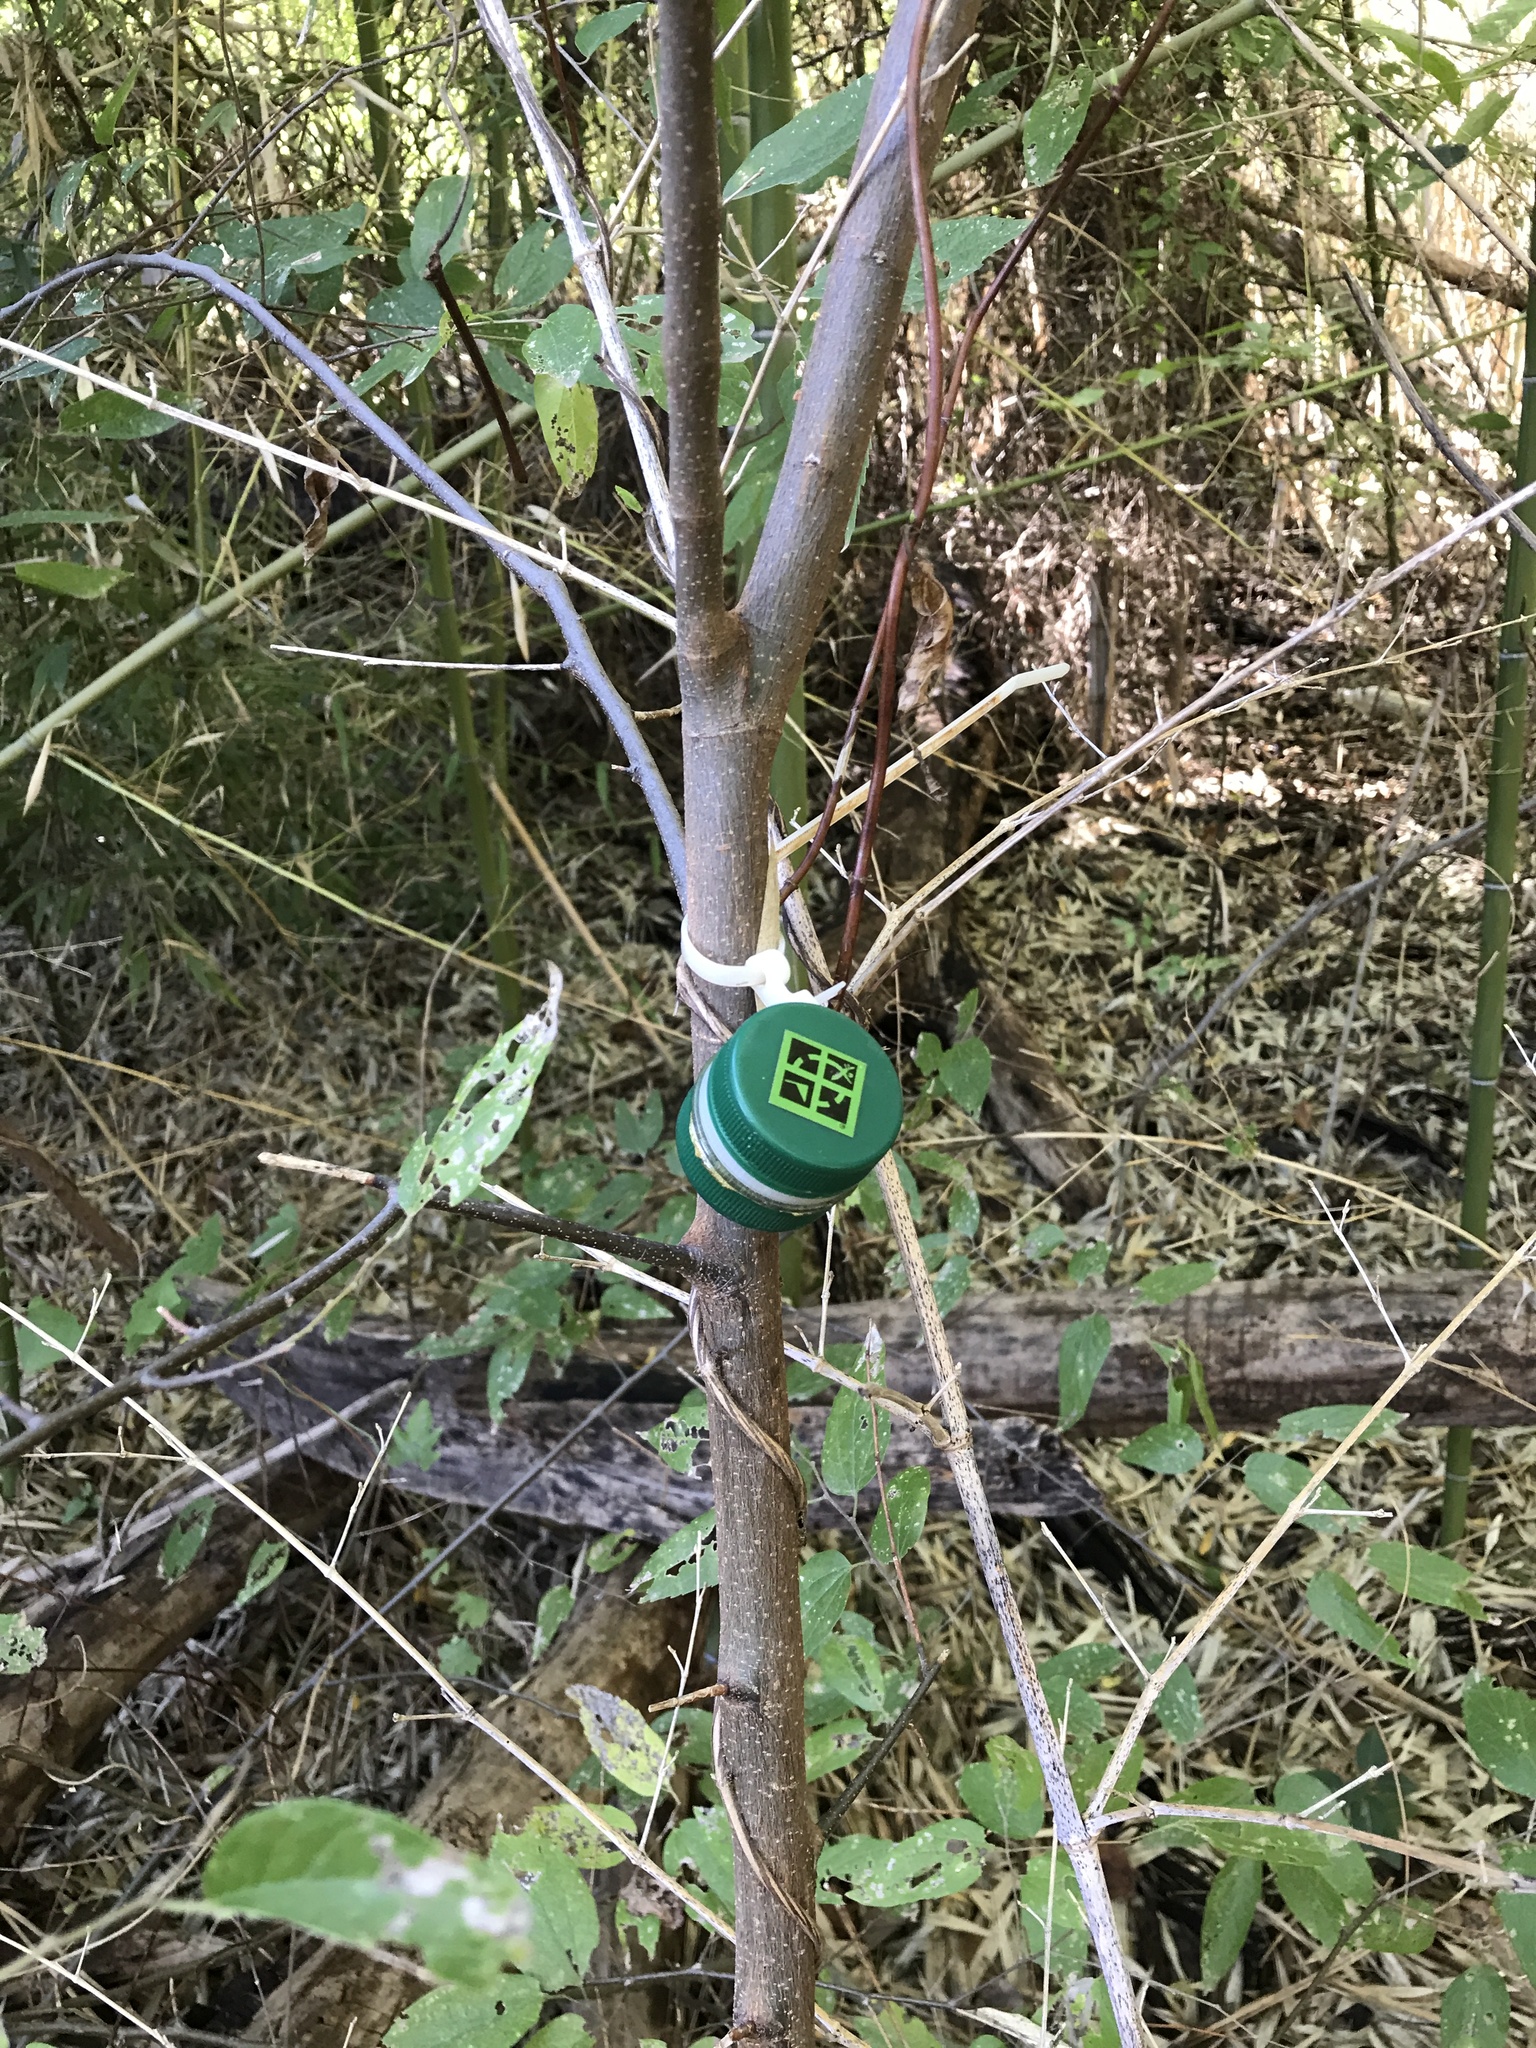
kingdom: Plantae
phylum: Tracheophyta
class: Magnoliopsida
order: Rosales
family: Cannabaceae
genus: Celtis
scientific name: Celtis laevigata
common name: Sugarberry
